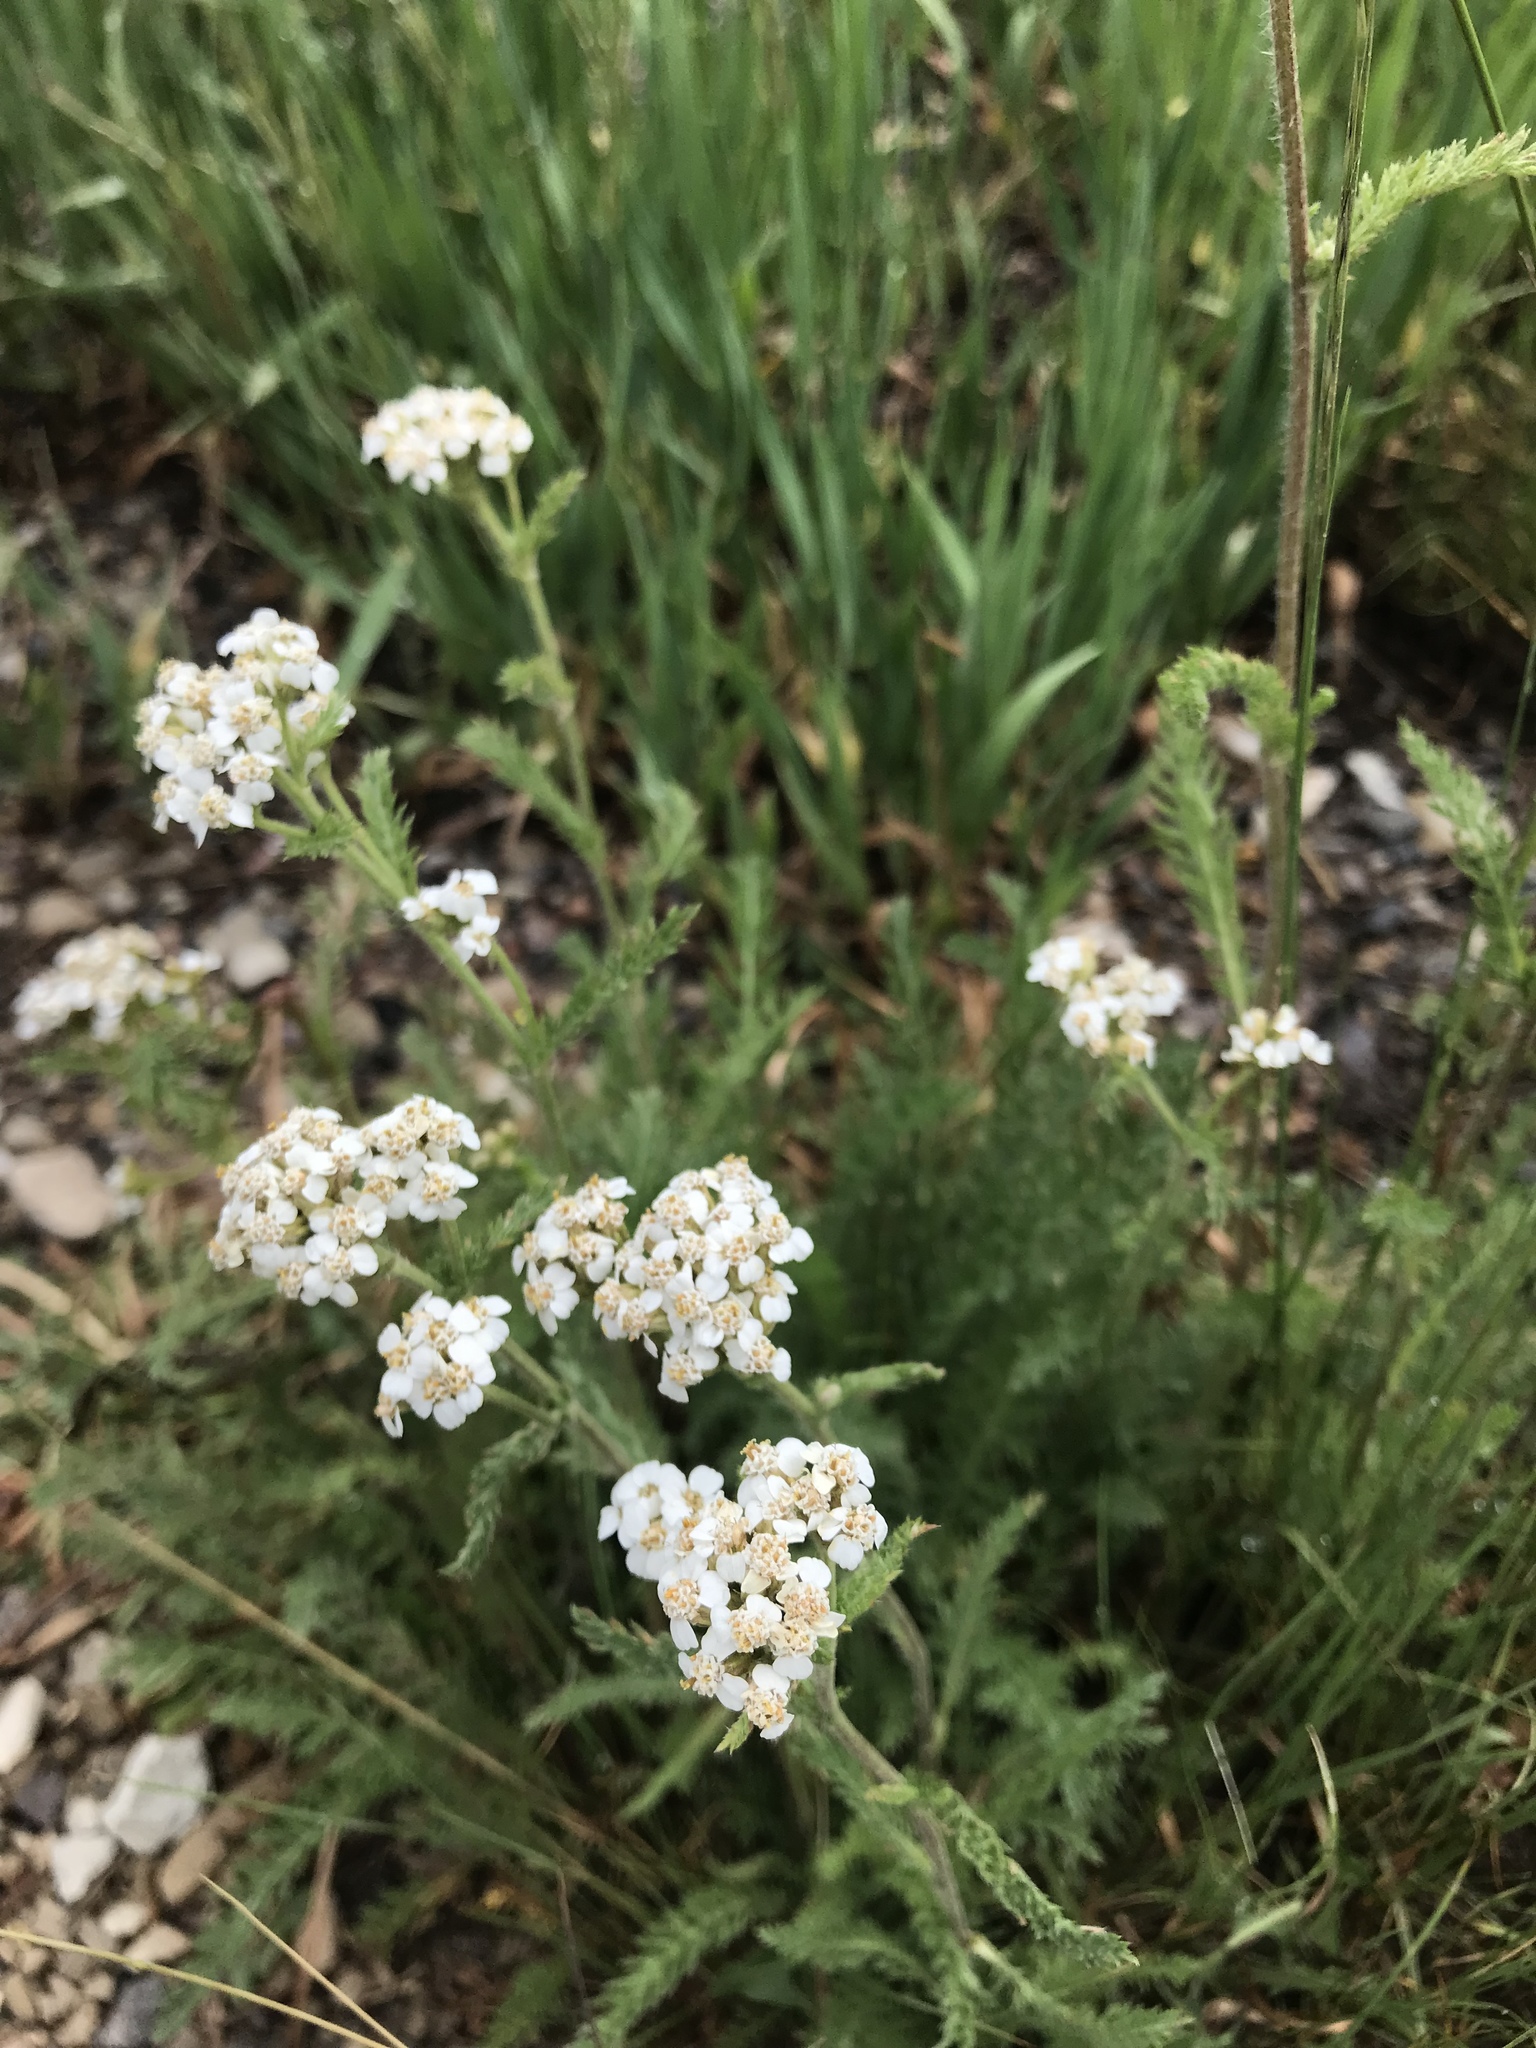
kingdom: Plantae
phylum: Tracheophyta
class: Magnoliopsida
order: Asterales
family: Asteraceae
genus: Achillea
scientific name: Achillea millefolium
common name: Yarrow
